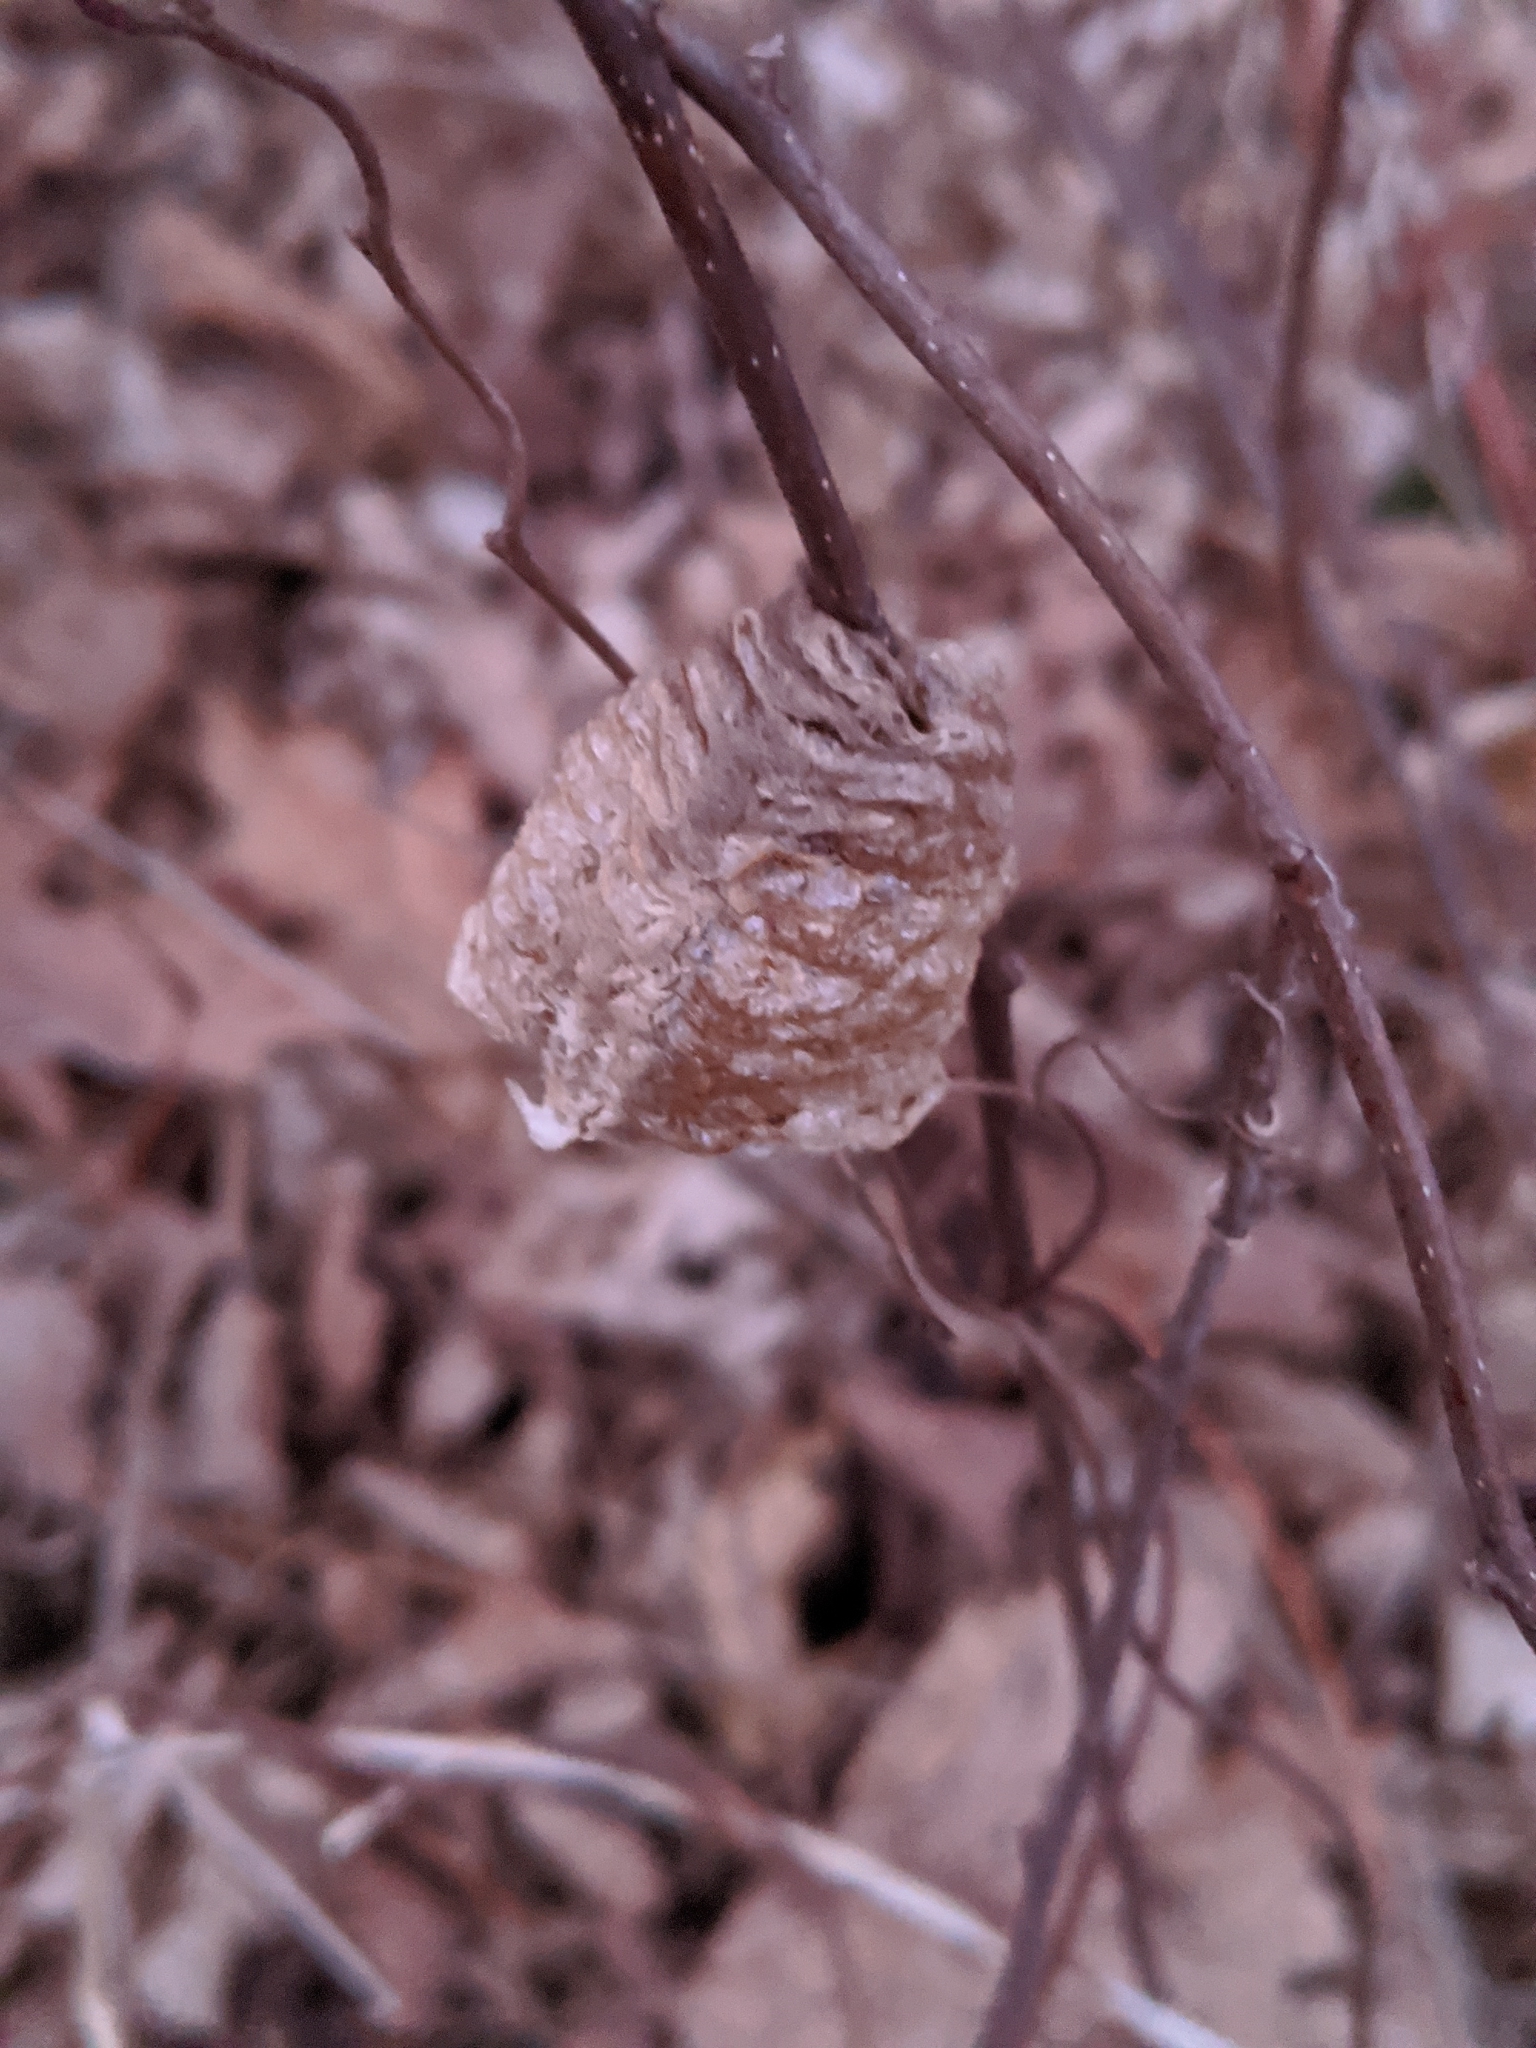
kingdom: Animalia
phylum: Arthropoda
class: Insecta
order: Mantodea
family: Mantidae
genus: Tenodera
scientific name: Tenodera sinensis
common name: Chinese mantis
